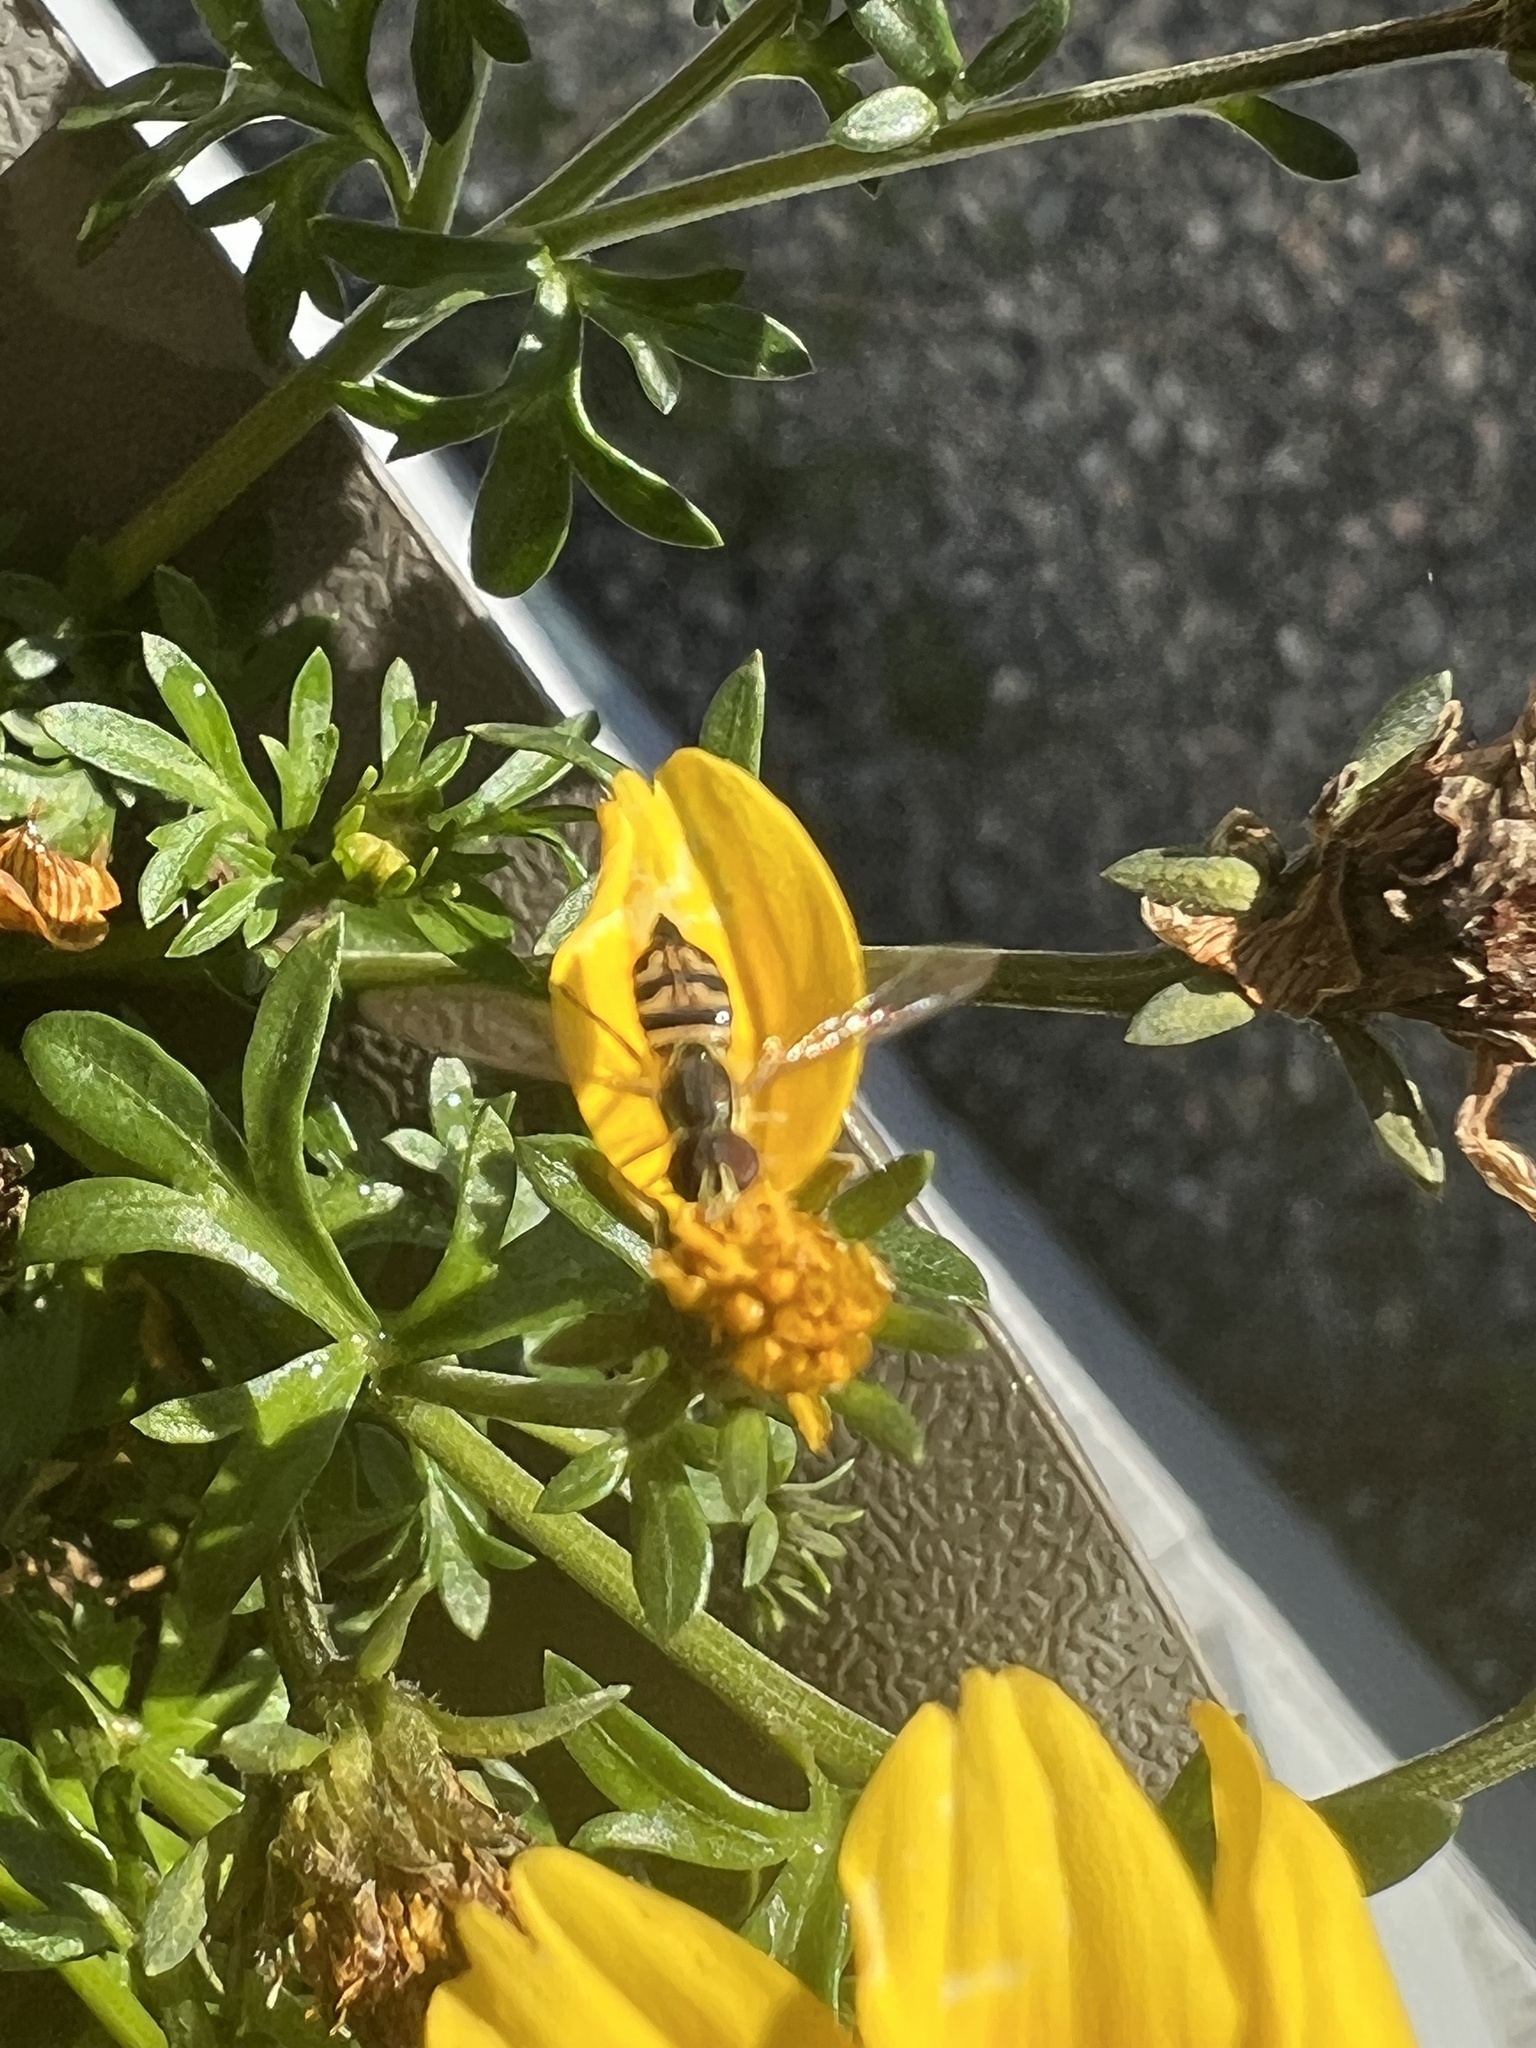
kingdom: Animalia
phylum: Arthropoda
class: Insecta
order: Diptera
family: Syrphidae
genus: Toxomerus
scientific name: Toxomerus geminatus
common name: Eastern calligrapher
